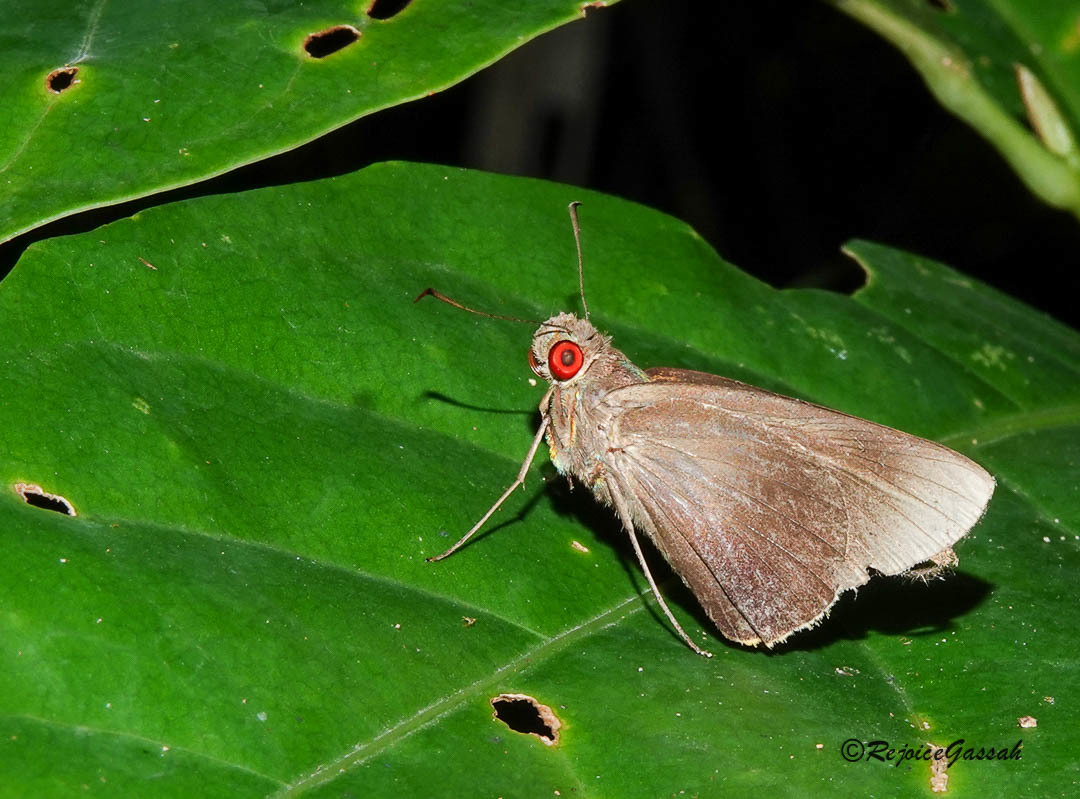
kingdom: Animalia
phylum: Arthropoda
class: Insecta
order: Lepidoptera
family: Hesperiidae
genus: Matapa
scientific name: Matapa aria
